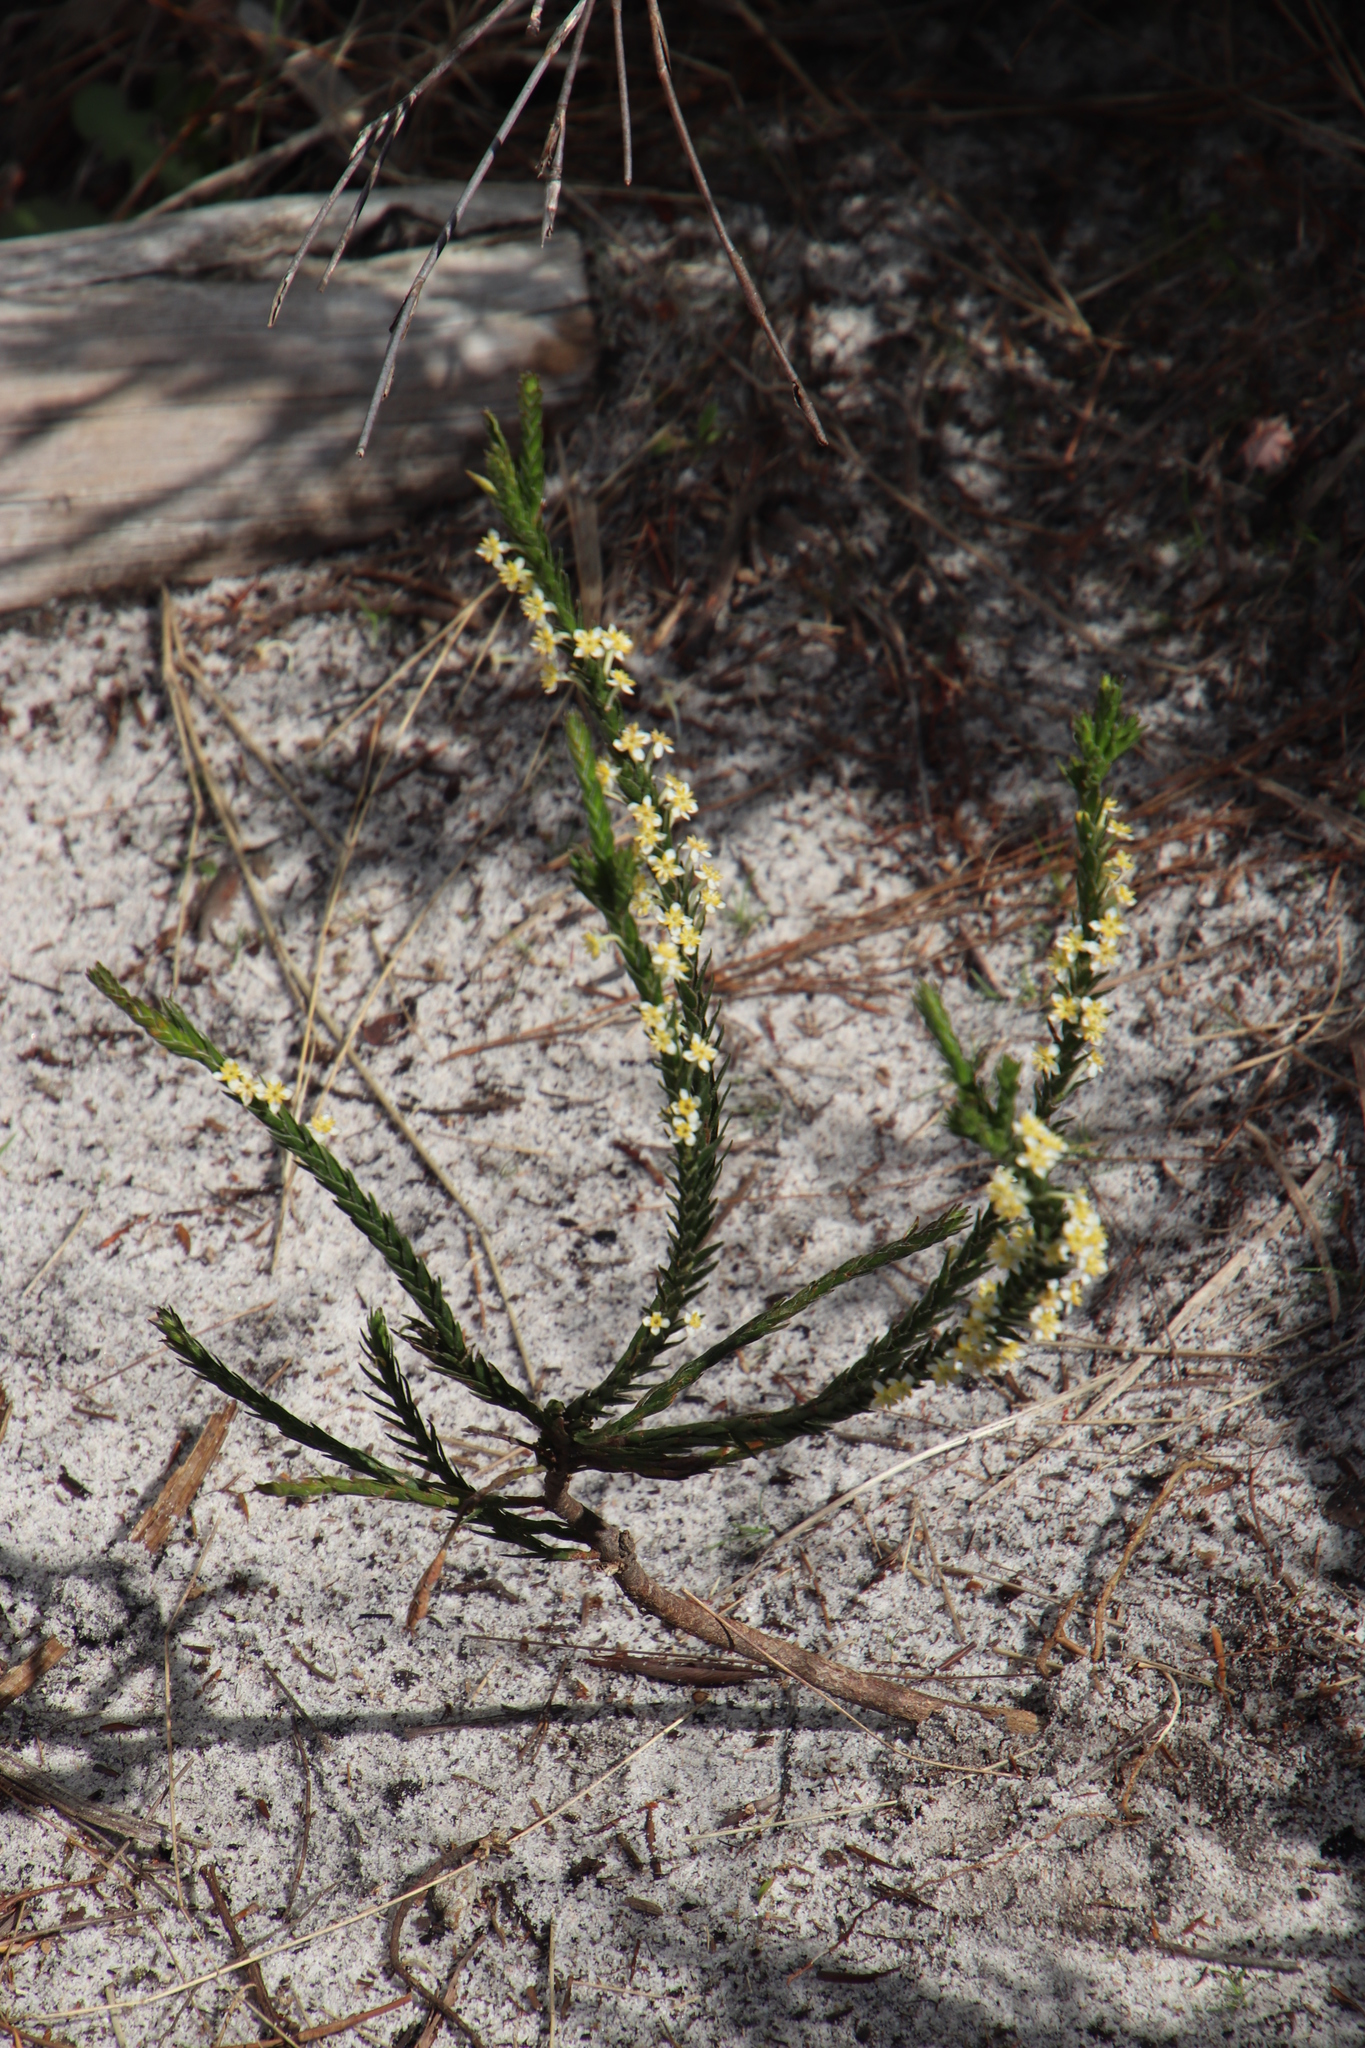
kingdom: Plantae
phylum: Tracheophyta
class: Magnoliopsida
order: Malvales
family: Thymelaeaceae
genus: Struthiola
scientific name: Struthiola ciliata
